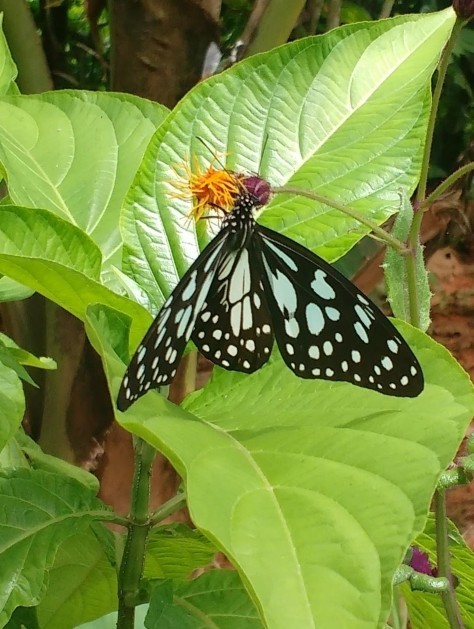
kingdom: Animalia
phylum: Arthropoda
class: Insecta
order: Lepidoptera
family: Nymphalidae
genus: Tirumala
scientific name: Tirumala limniace
